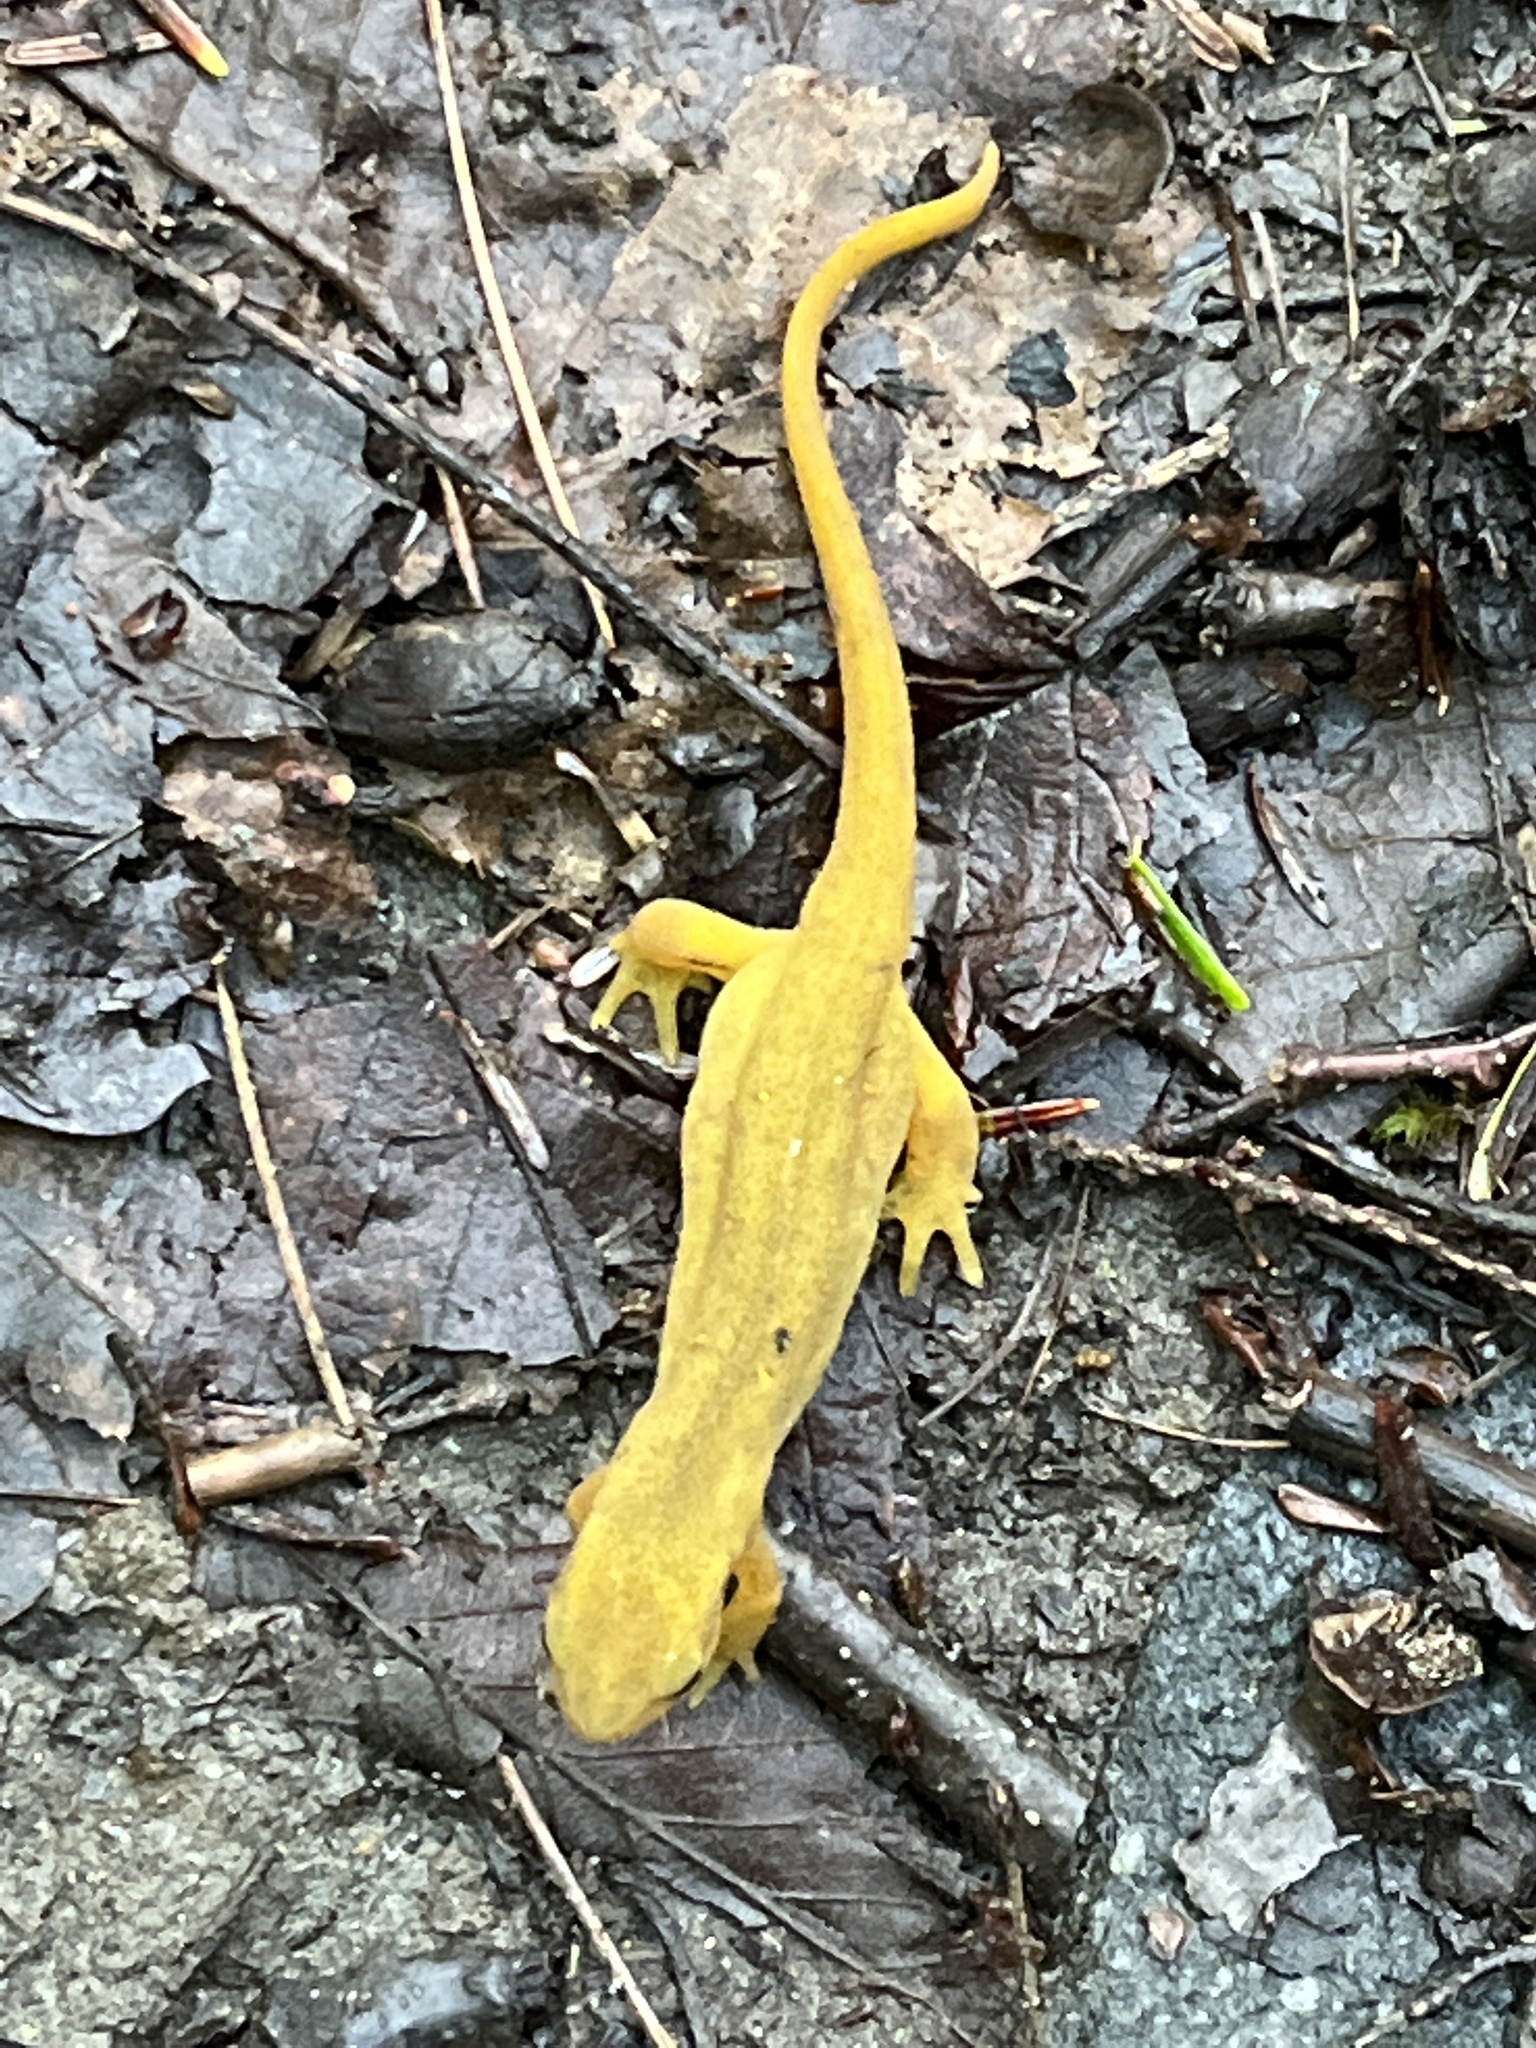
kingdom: Animalia
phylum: Chordata
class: Amphibia
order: Caudata
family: Salamandridae
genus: Notophthalmus
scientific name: Notophthalmus viridescens
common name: Eastern newt
